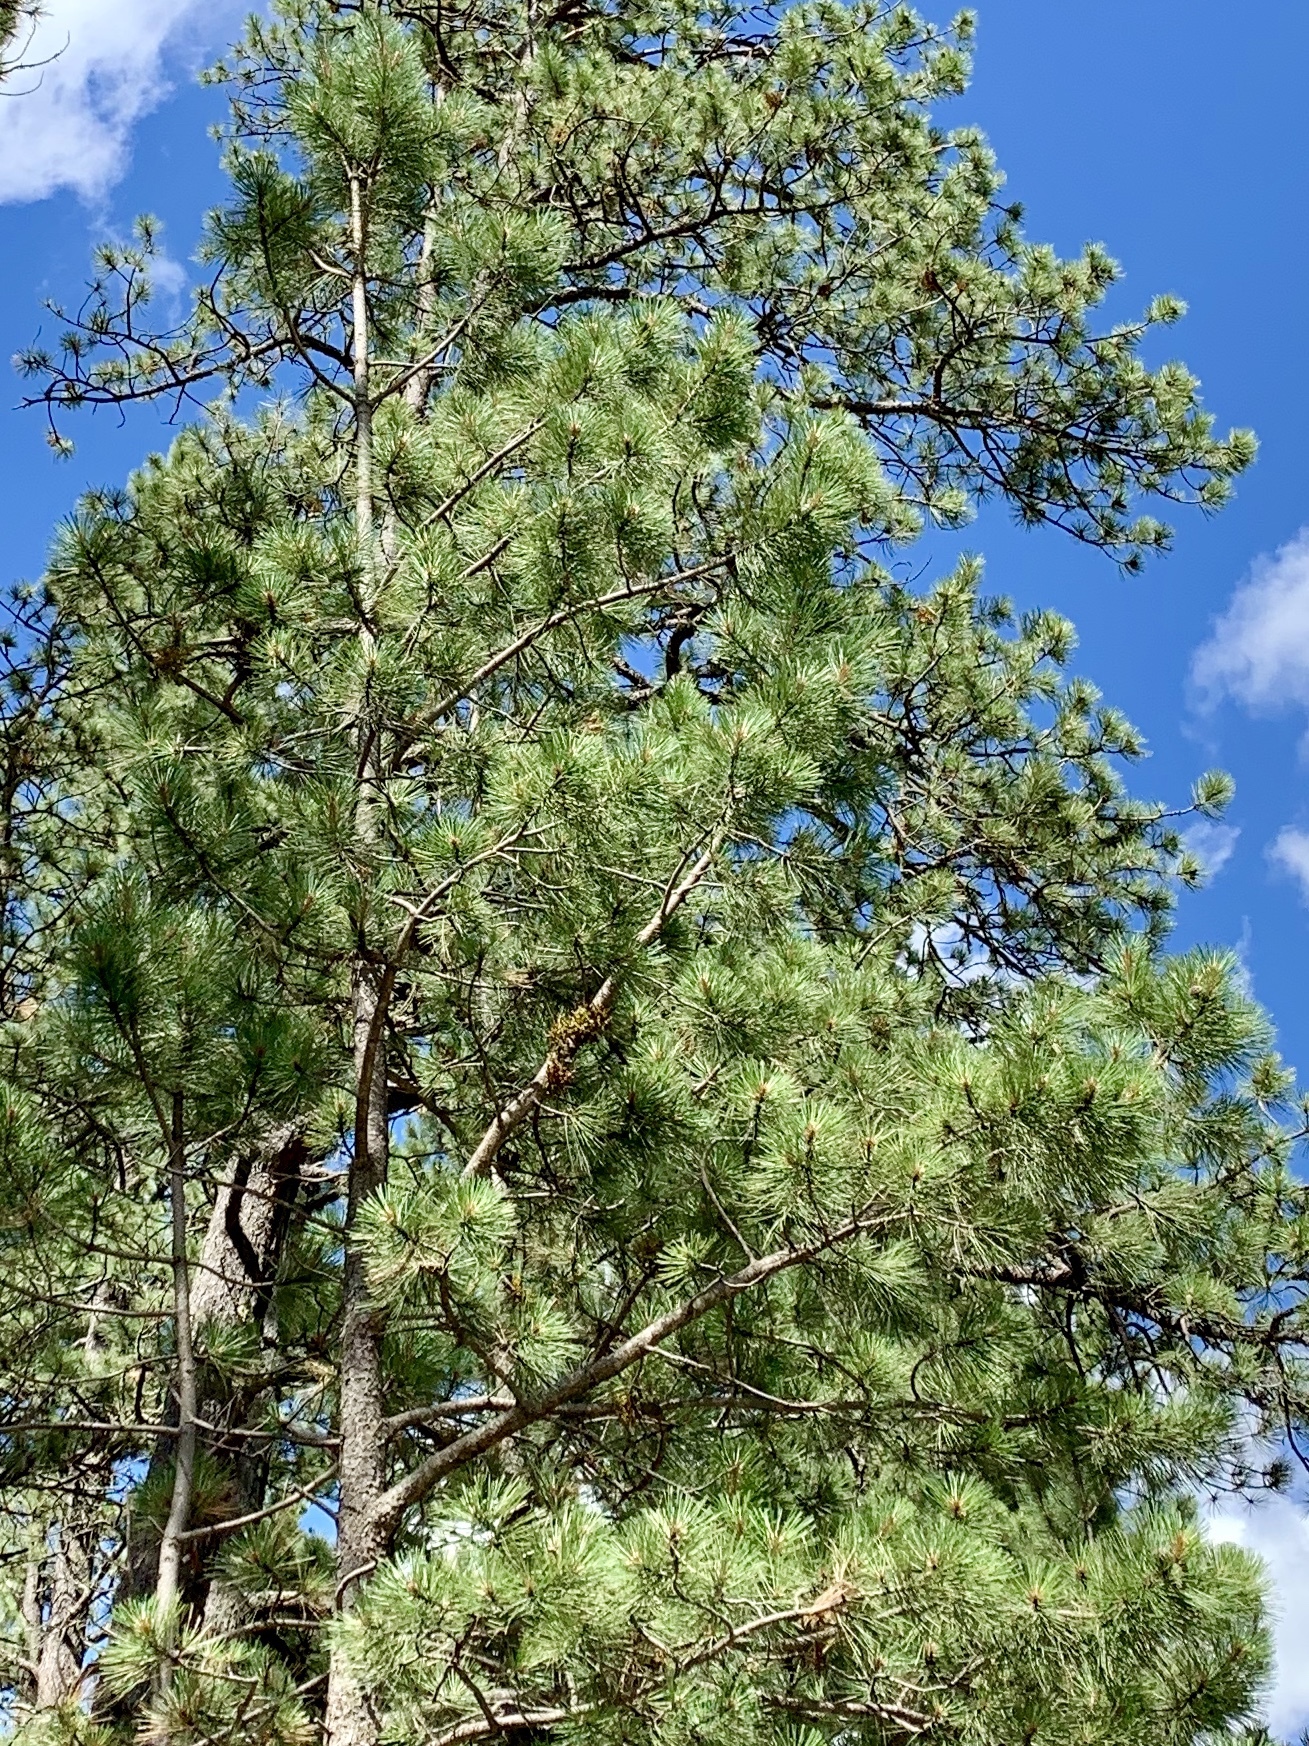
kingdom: Plantae
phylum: Tracheophyta
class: Pinopsida
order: Pinales
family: Pinaceae
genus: Pinus
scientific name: Pinus ponderosa
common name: Western yellow-pine
